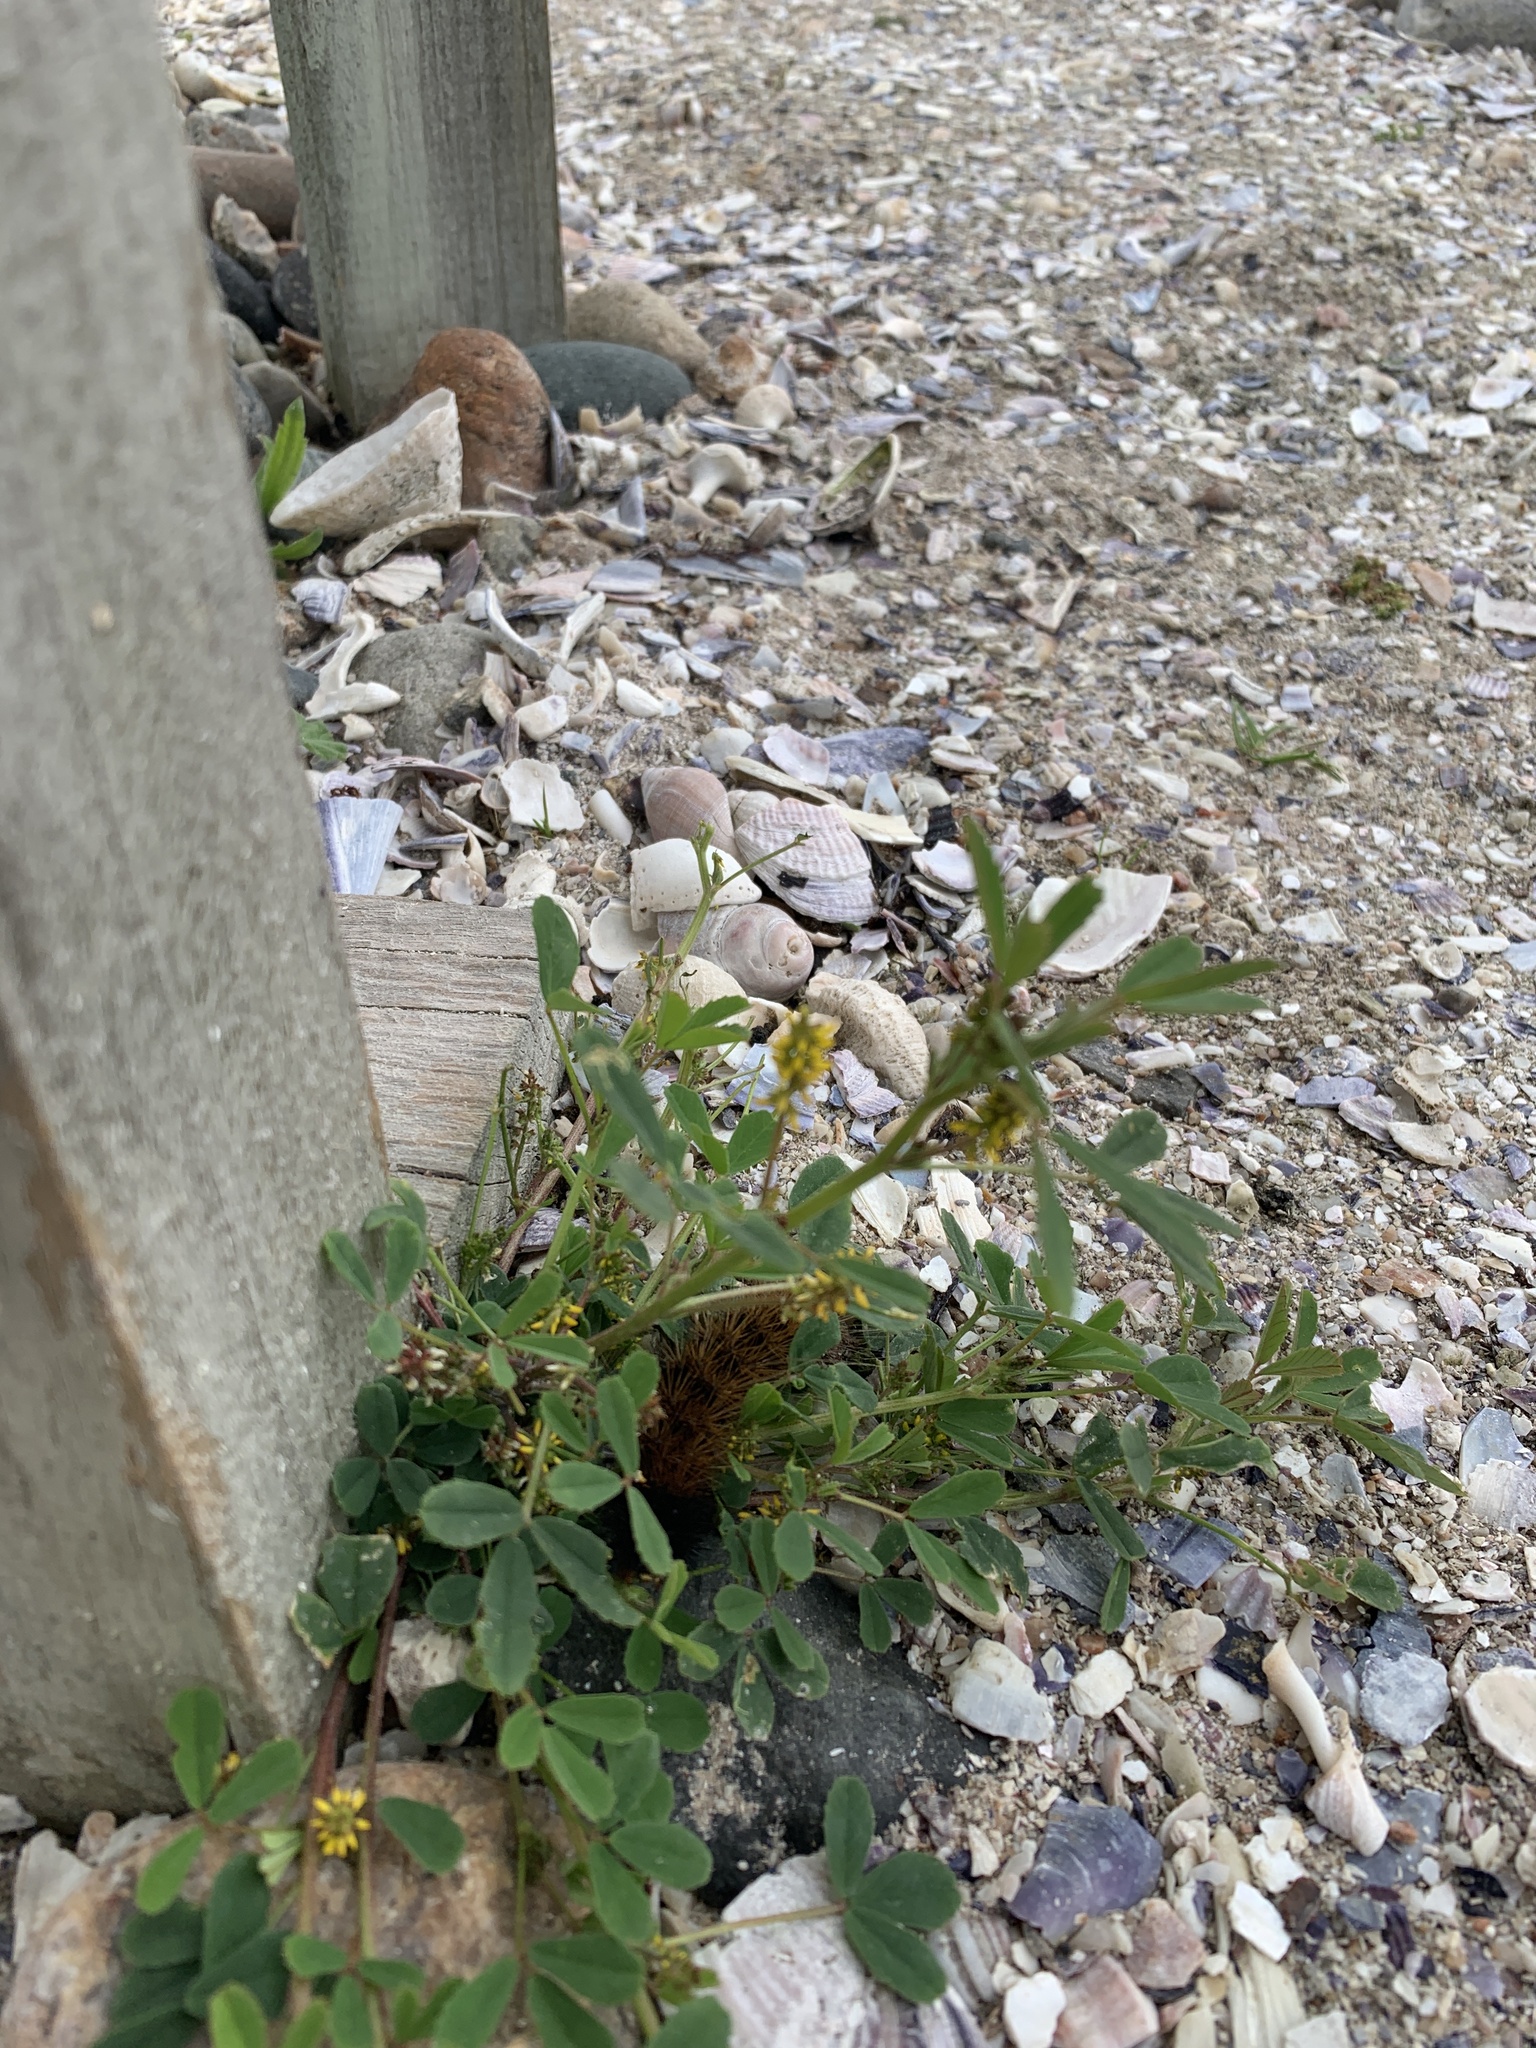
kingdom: Plantae
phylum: Tracheophyta
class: Magnoliopsida
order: Fabales
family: Fabaceae
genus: Melilotus
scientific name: Melilotus indicus
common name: Small melilot
